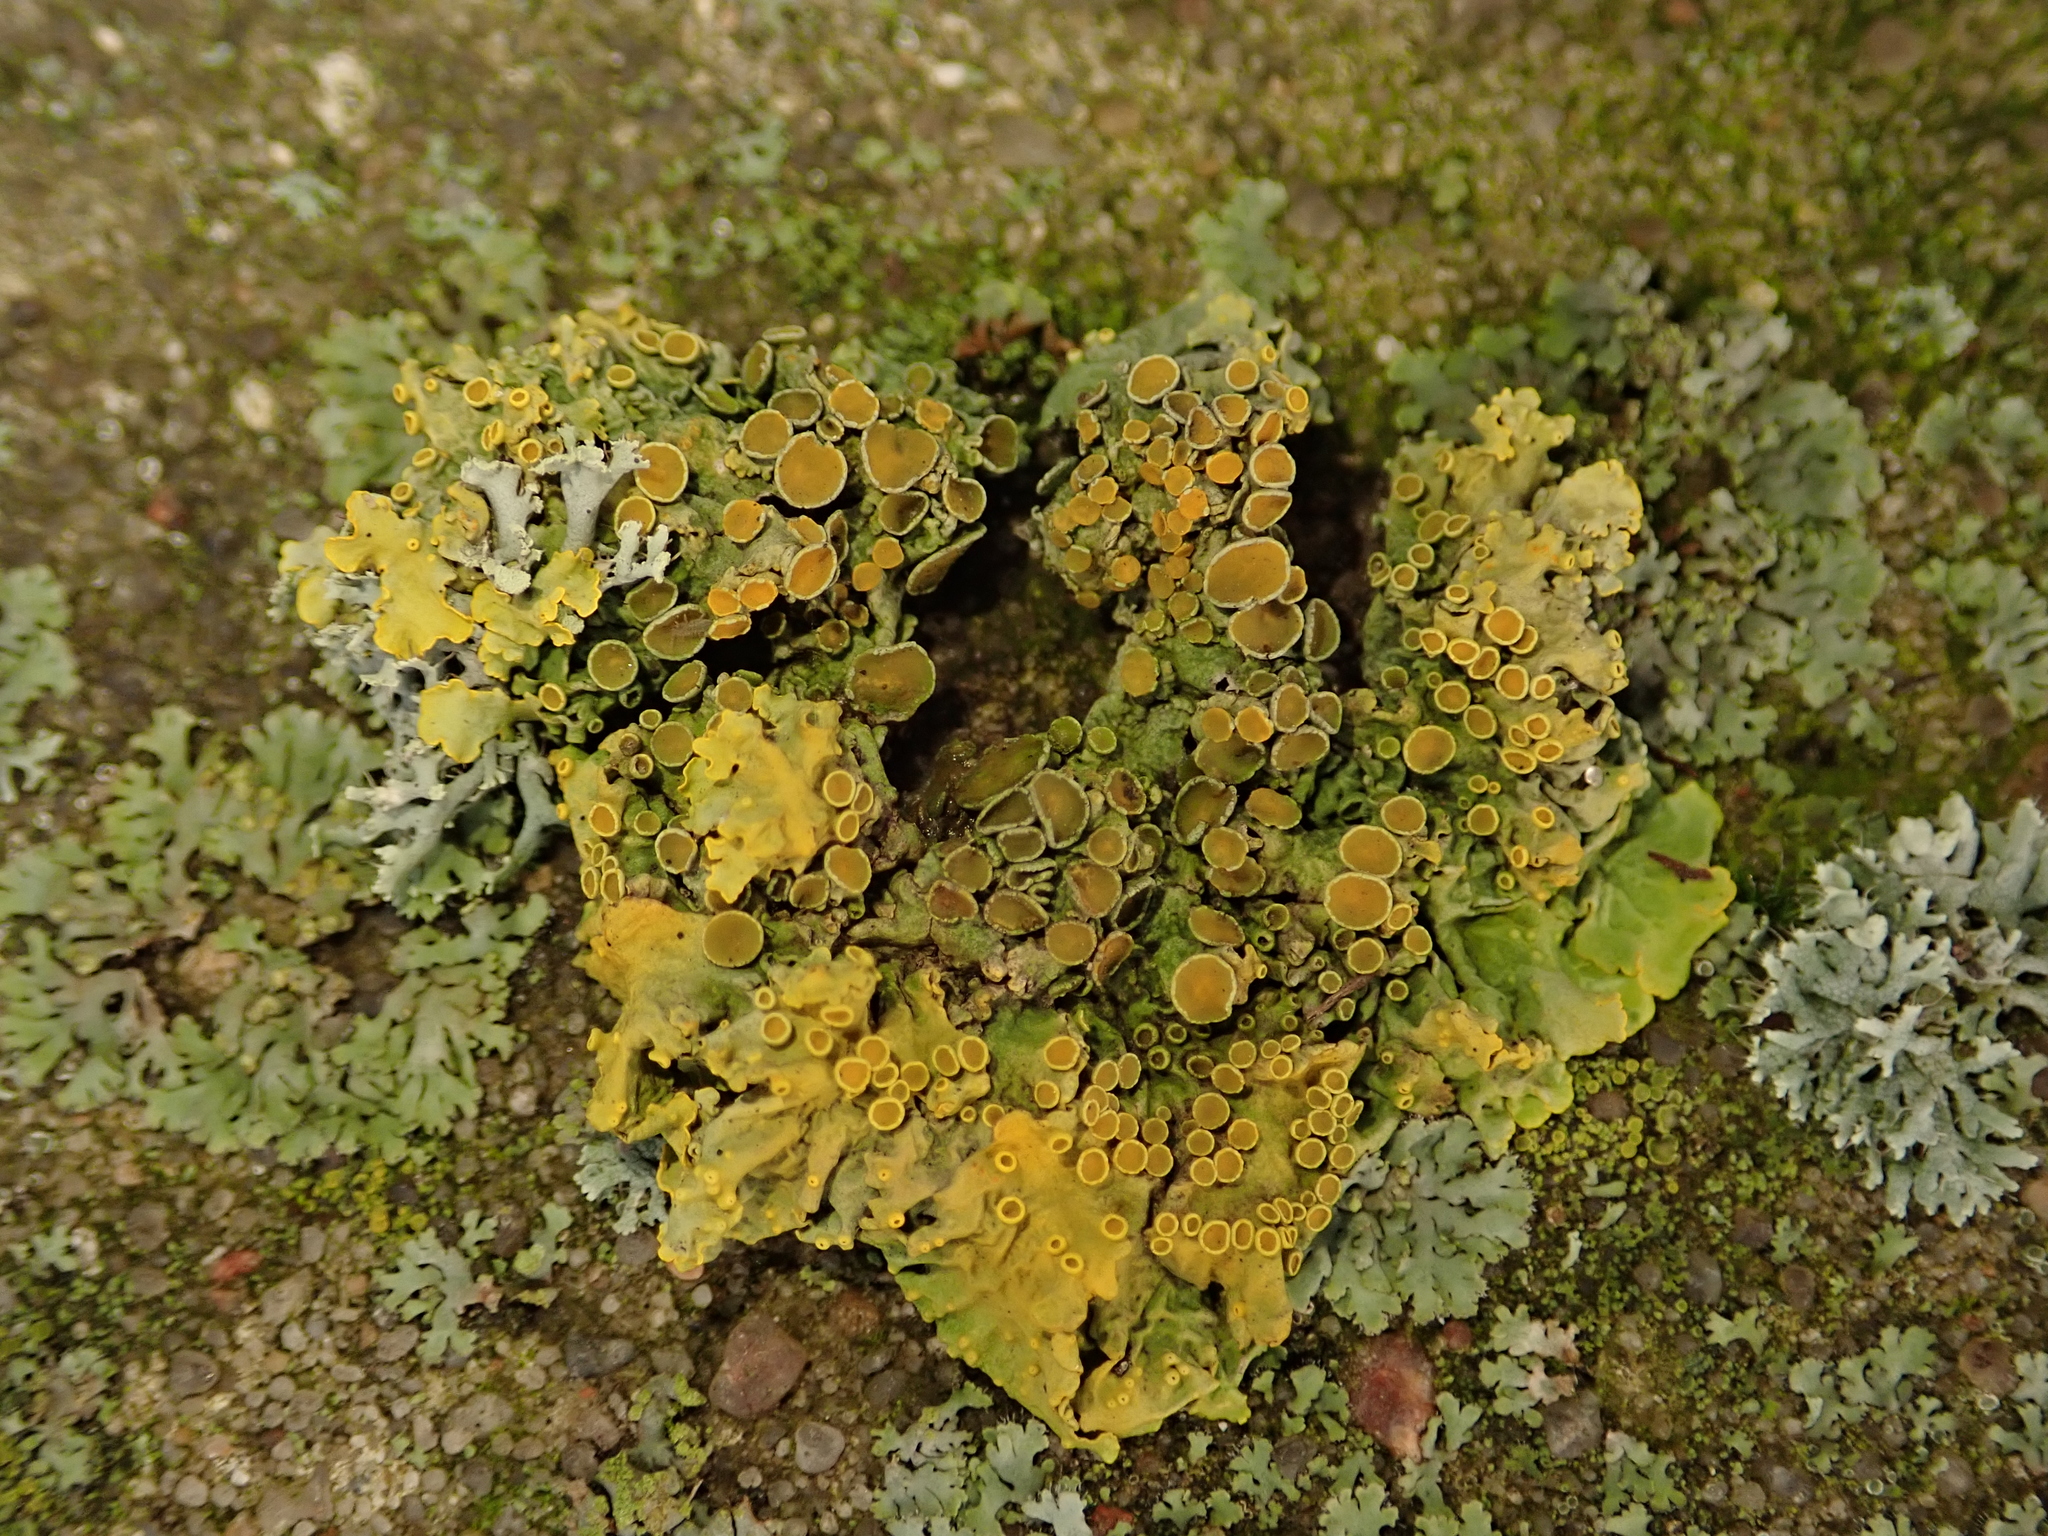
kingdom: Fungi
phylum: Ascomycota
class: Lecanoromycetes
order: Teloschistales
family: Teloschistaceae
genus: Xanthoria
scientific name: Xanthoria parietina
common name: Common orange lichen
